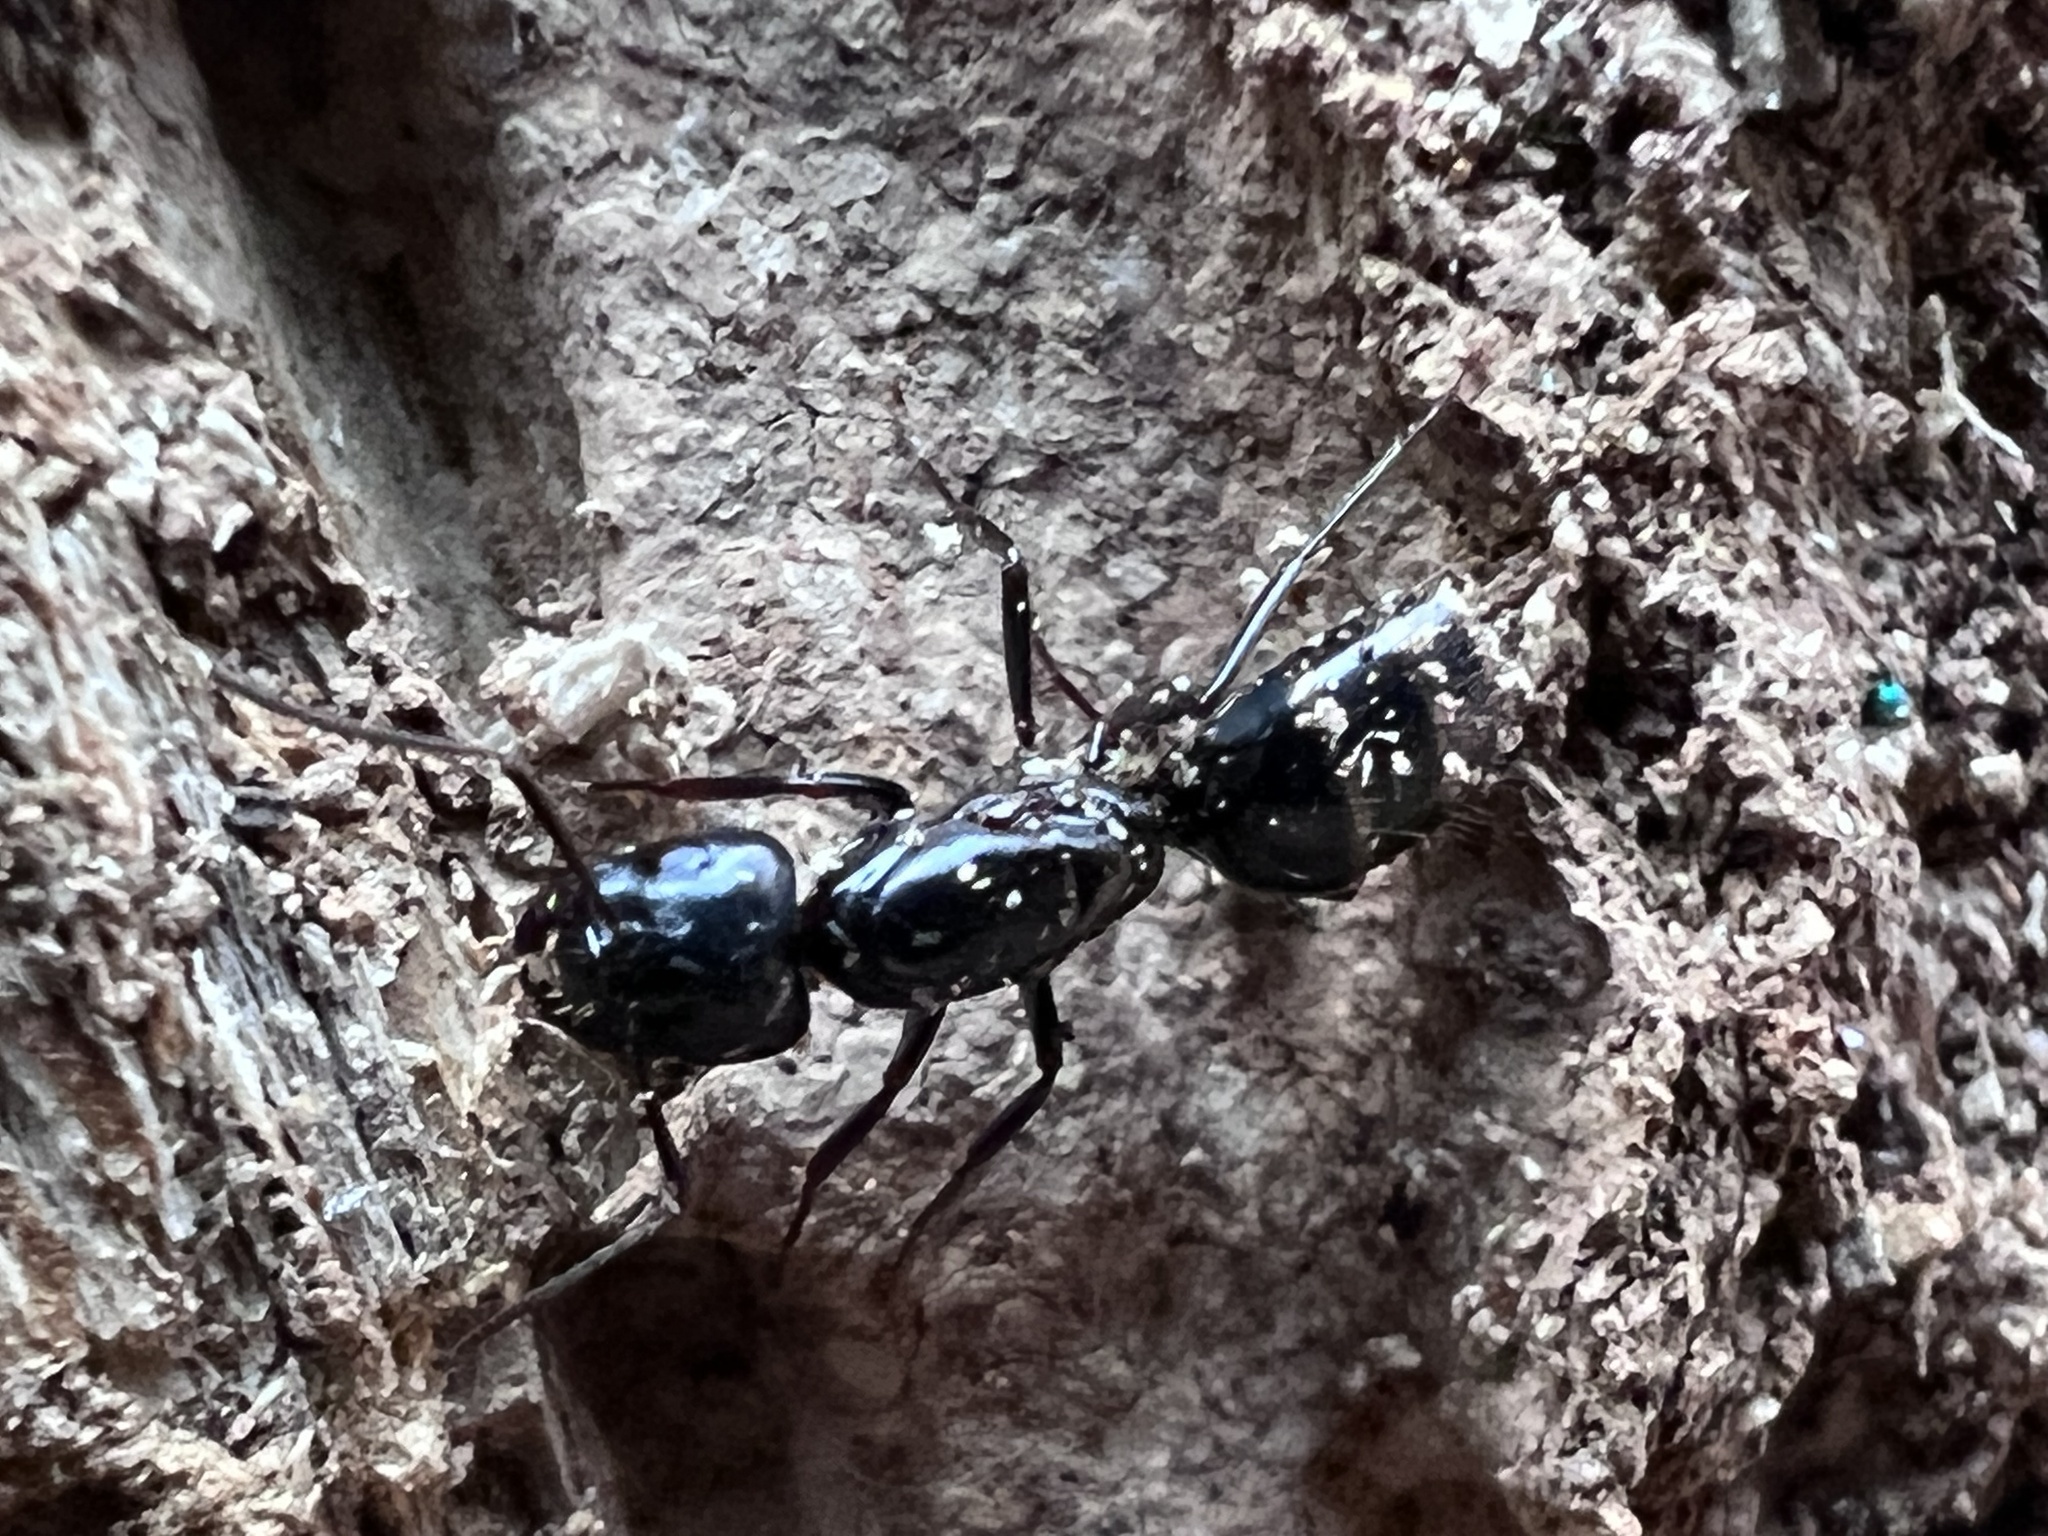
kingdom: Animalia
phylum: Arthropoda
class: Insecta
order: Hymenoptera
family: Formicidae
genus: Camponotus
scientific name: Camponotus pennsylvanicus
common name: Black carpenter ant
